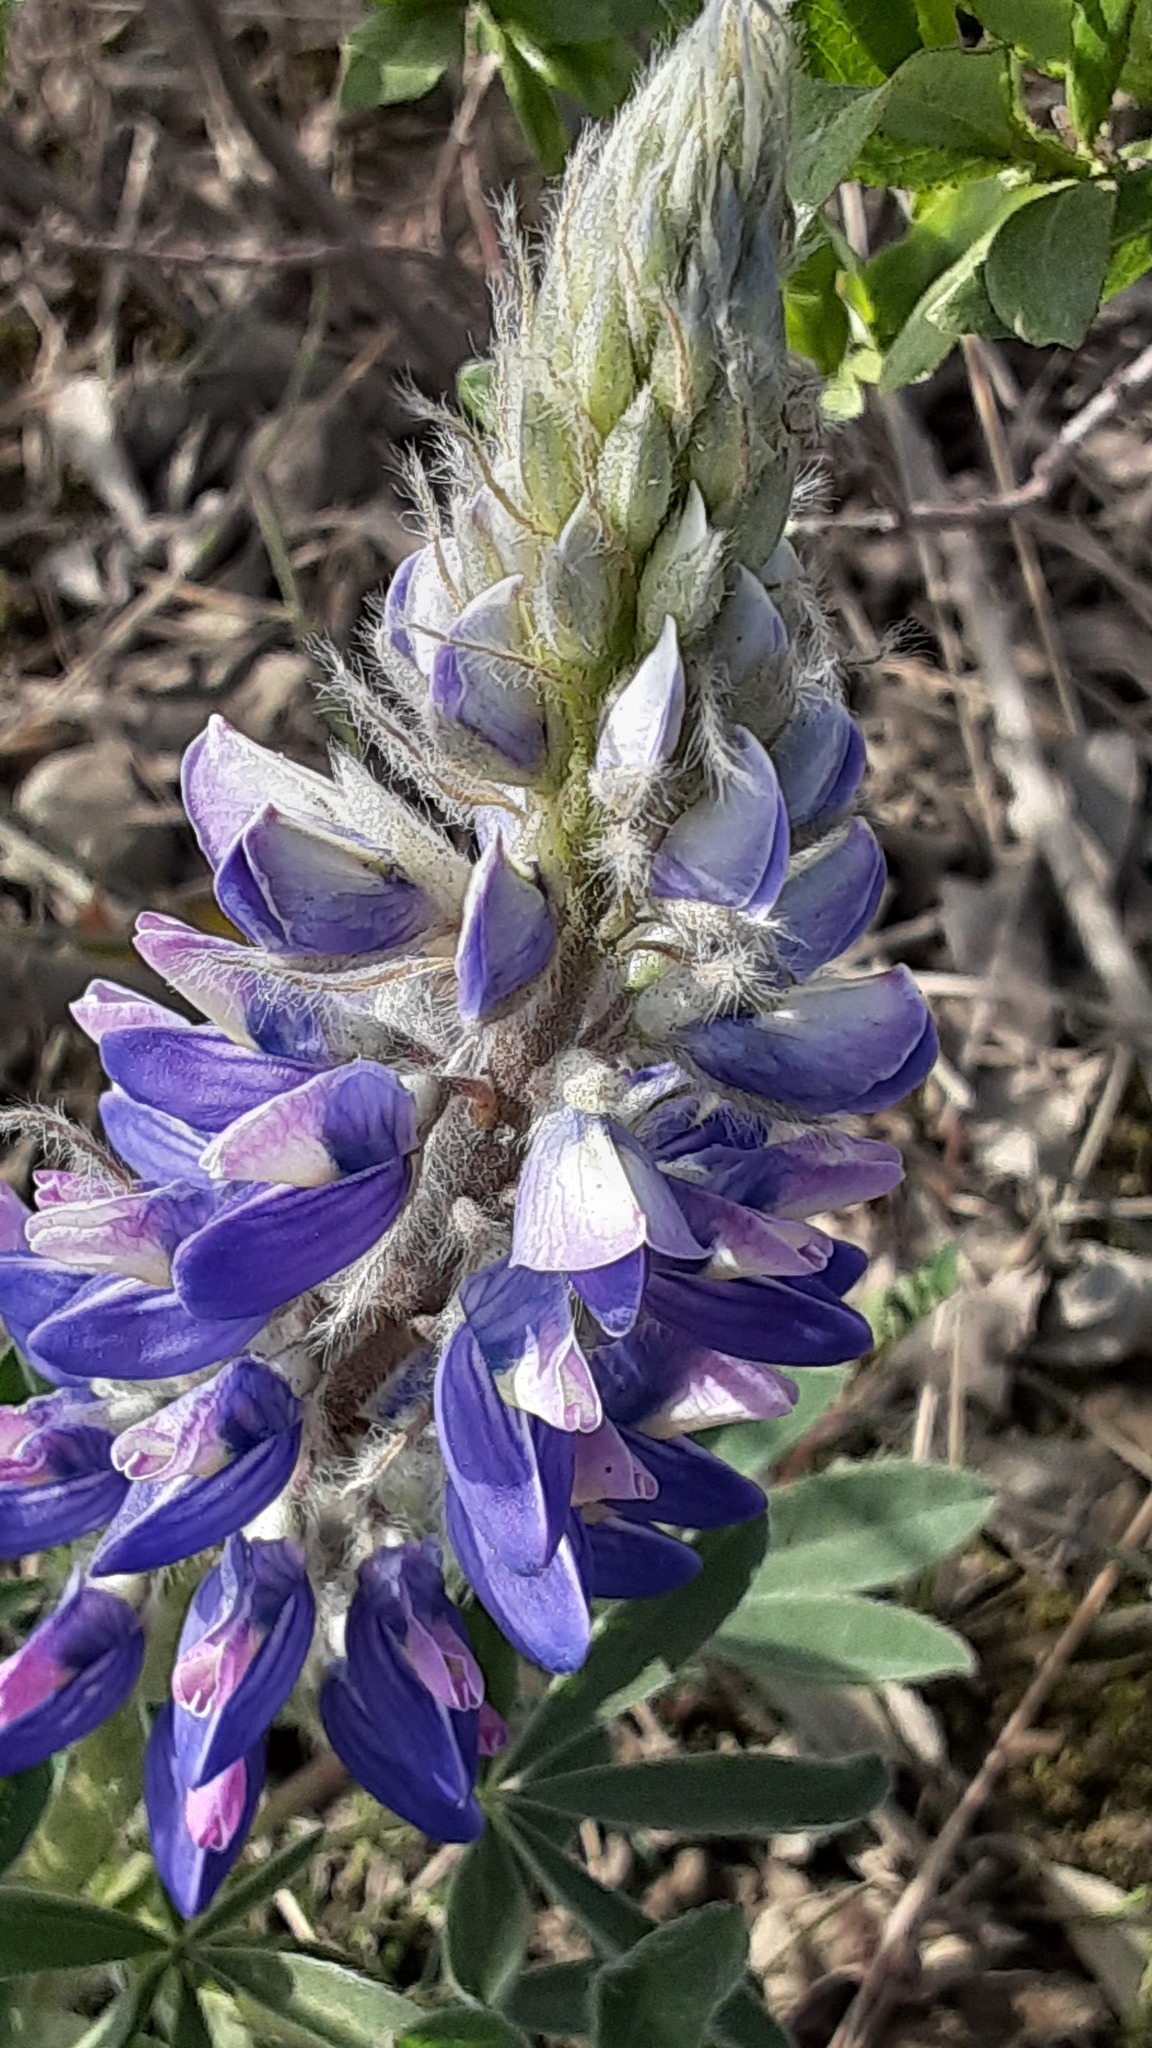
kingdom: Plantae
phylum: Tracheophyta
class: Magnoliopsida
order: Fabales
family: Fabaceae
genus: Lupinus
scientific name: Lupinus arcticus
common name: Arctic lupine
